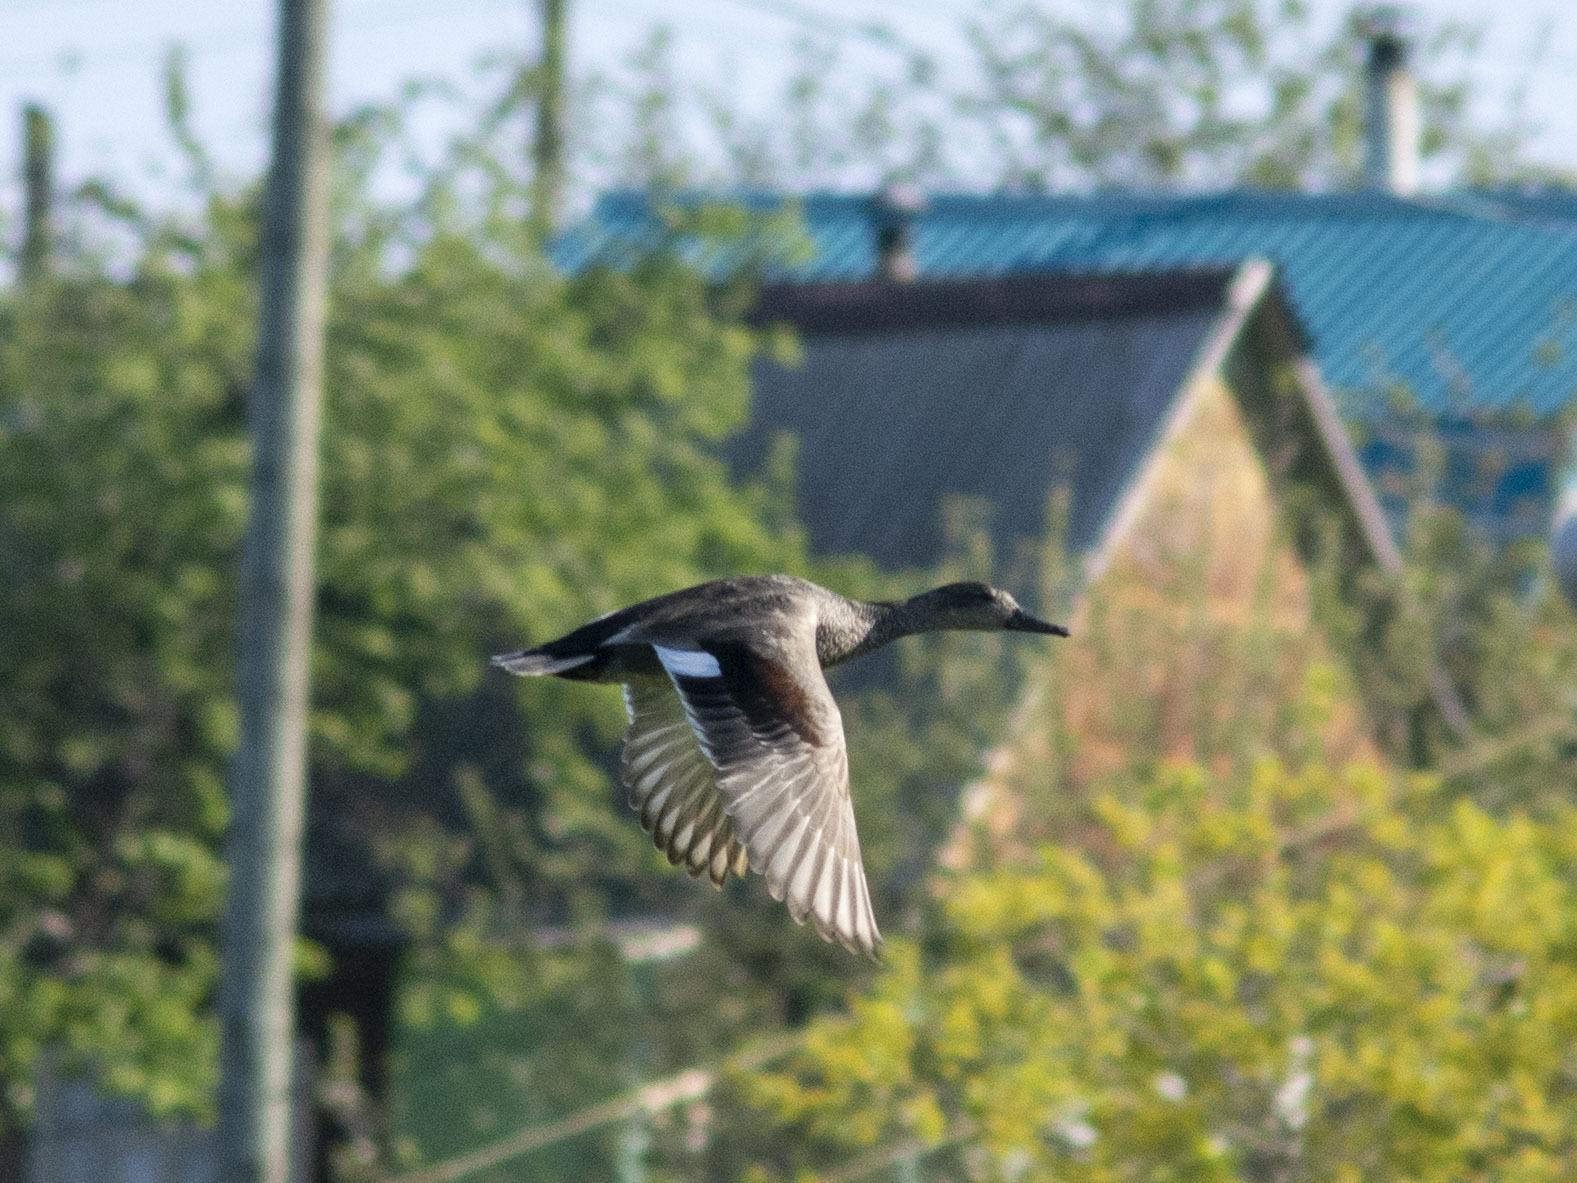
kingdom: Animalia
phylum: Chordata
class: Aves
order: Anseriformes
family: Anatidae
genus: Mareca
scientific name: Mareca strepera
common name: Gadwall
